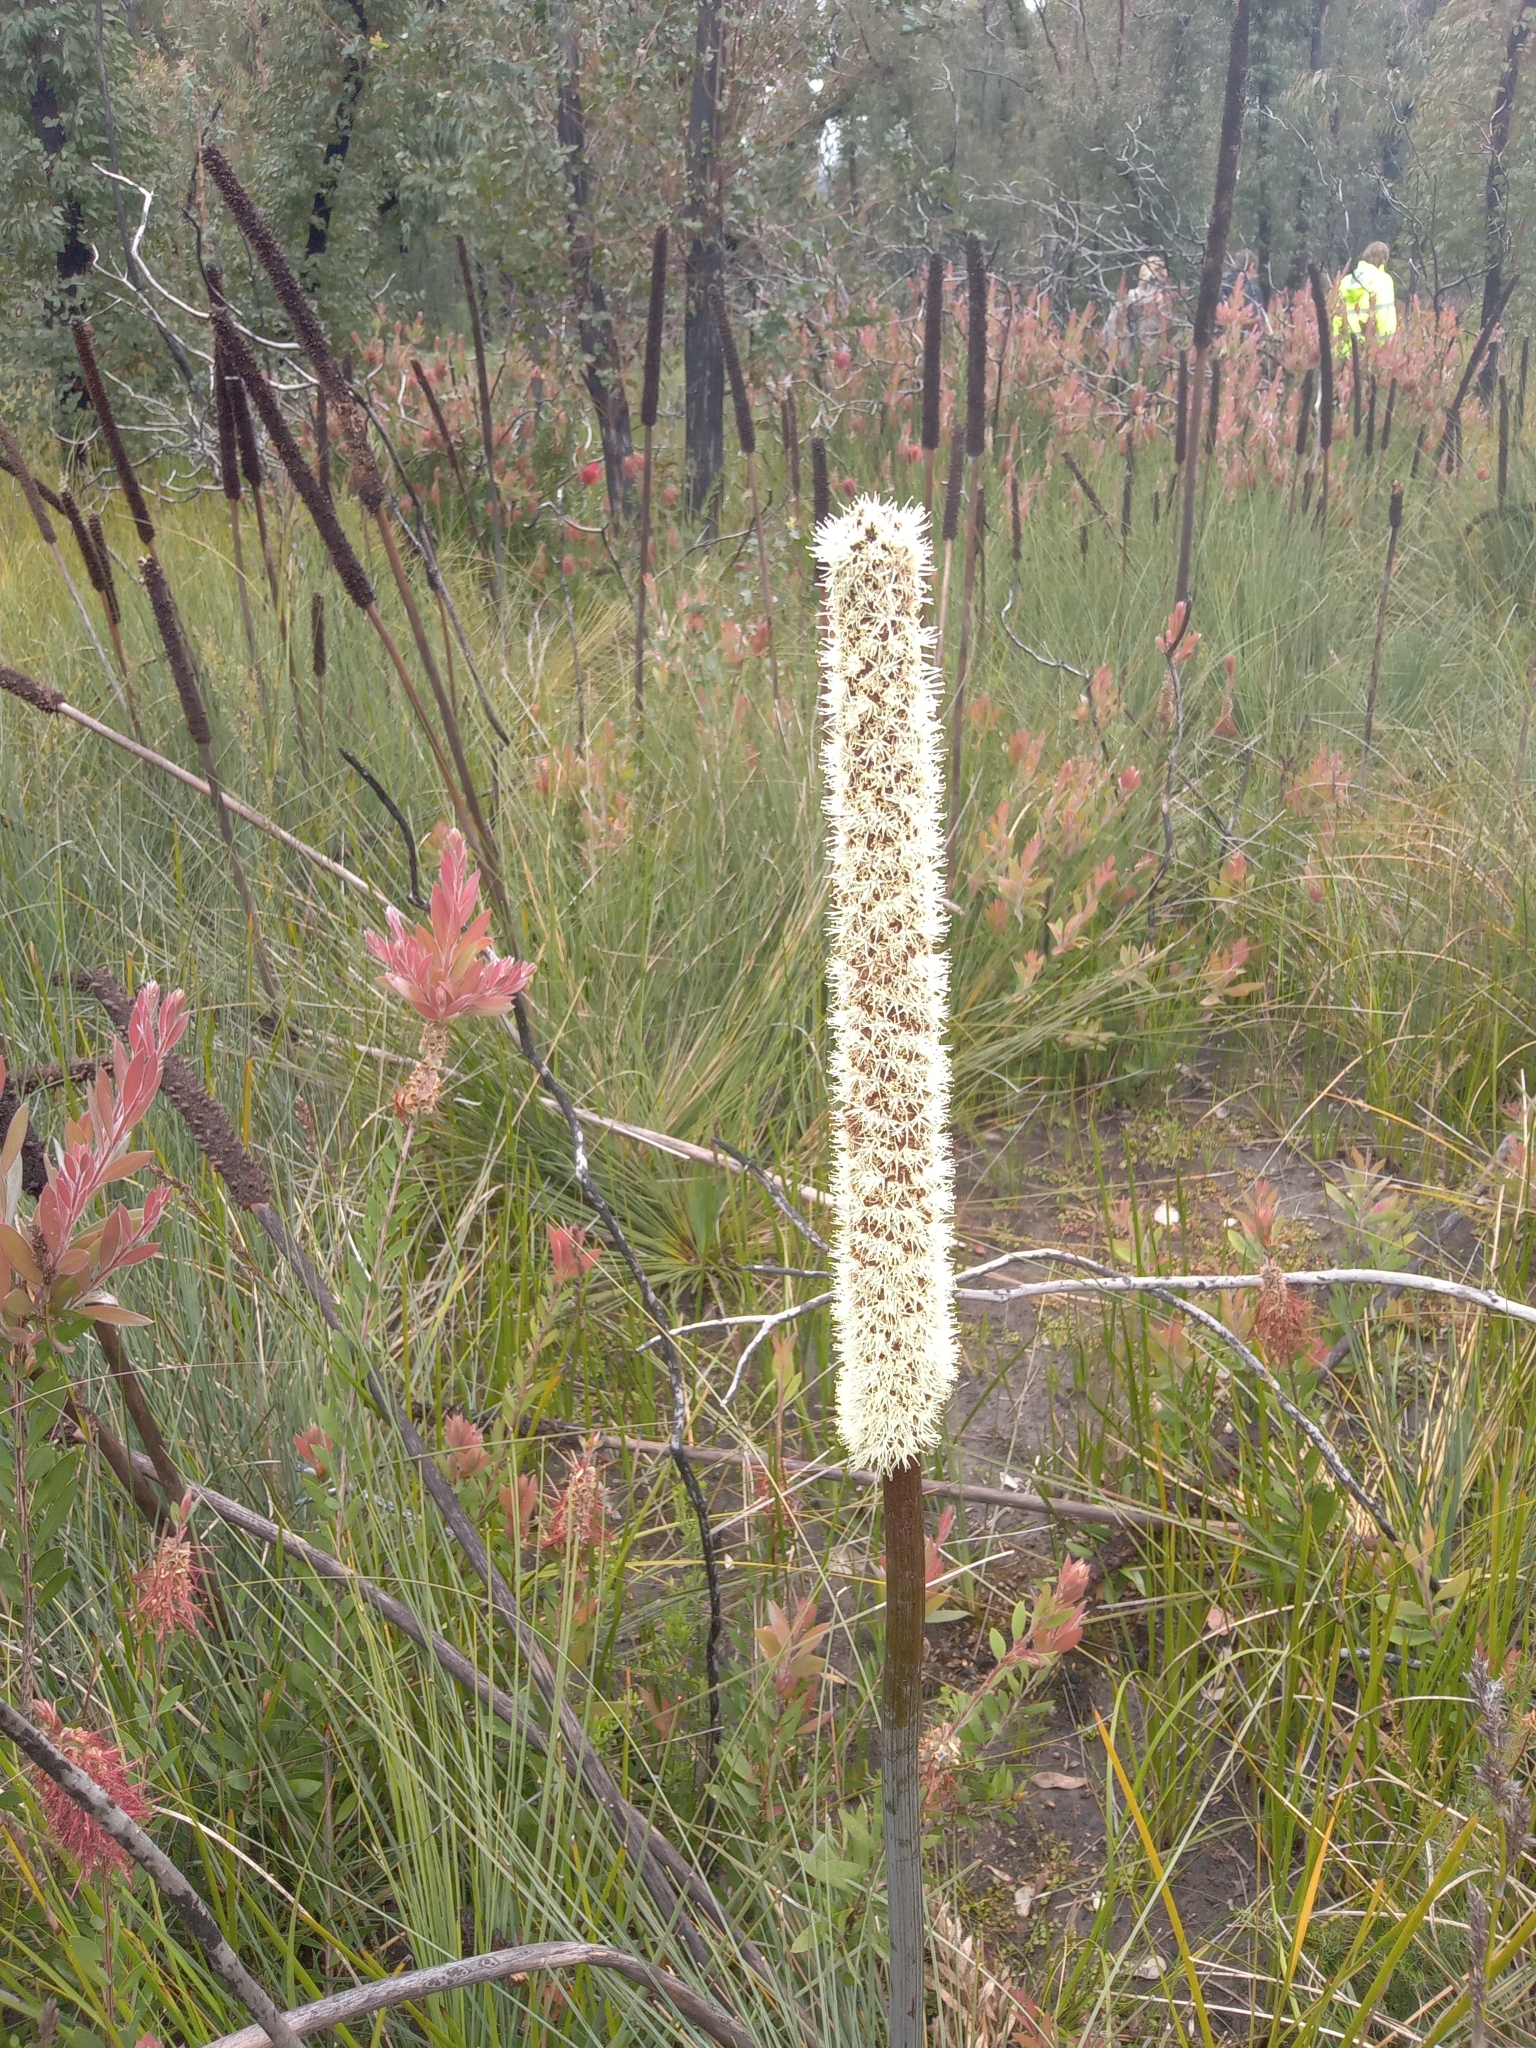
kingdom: Plantae
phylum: Tracheophyta
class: Liliopsida
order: Asparagales
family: Asphodelaceae
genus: Xanthorrhoea
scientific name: Xanthorrhoea resinosa
